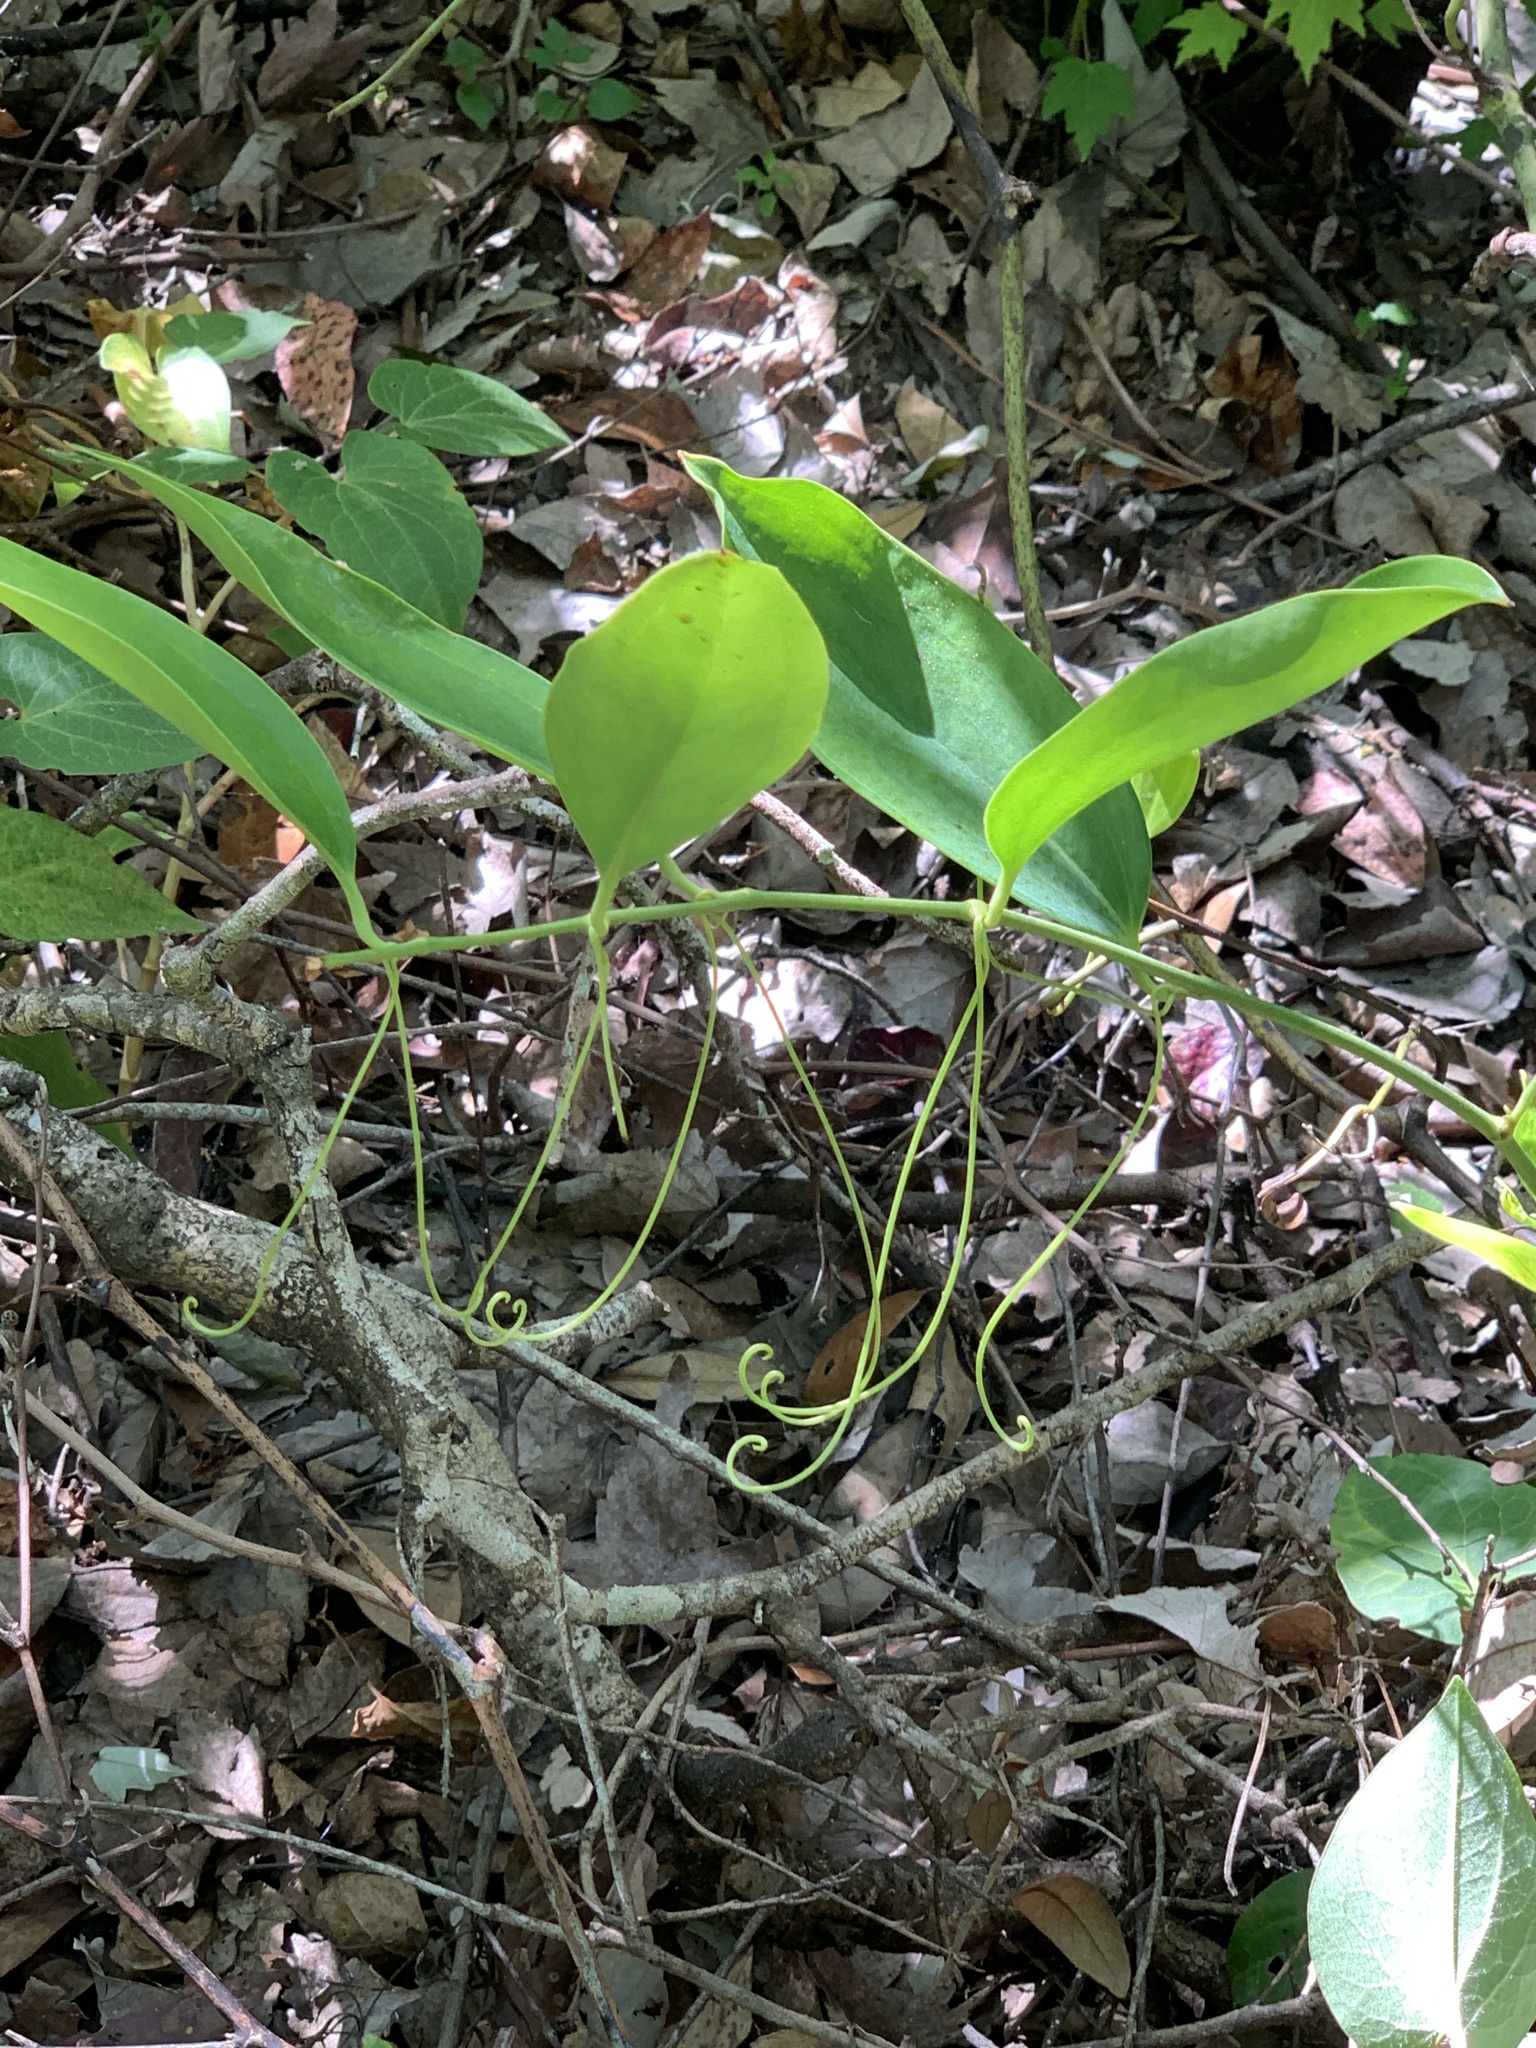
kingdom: Plantae
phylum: Tracheophyta
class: Liliopsida
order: Liliales
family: Smilacaceae
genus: Smilax
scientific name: Smilax laurifolia
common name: Bamboovine
